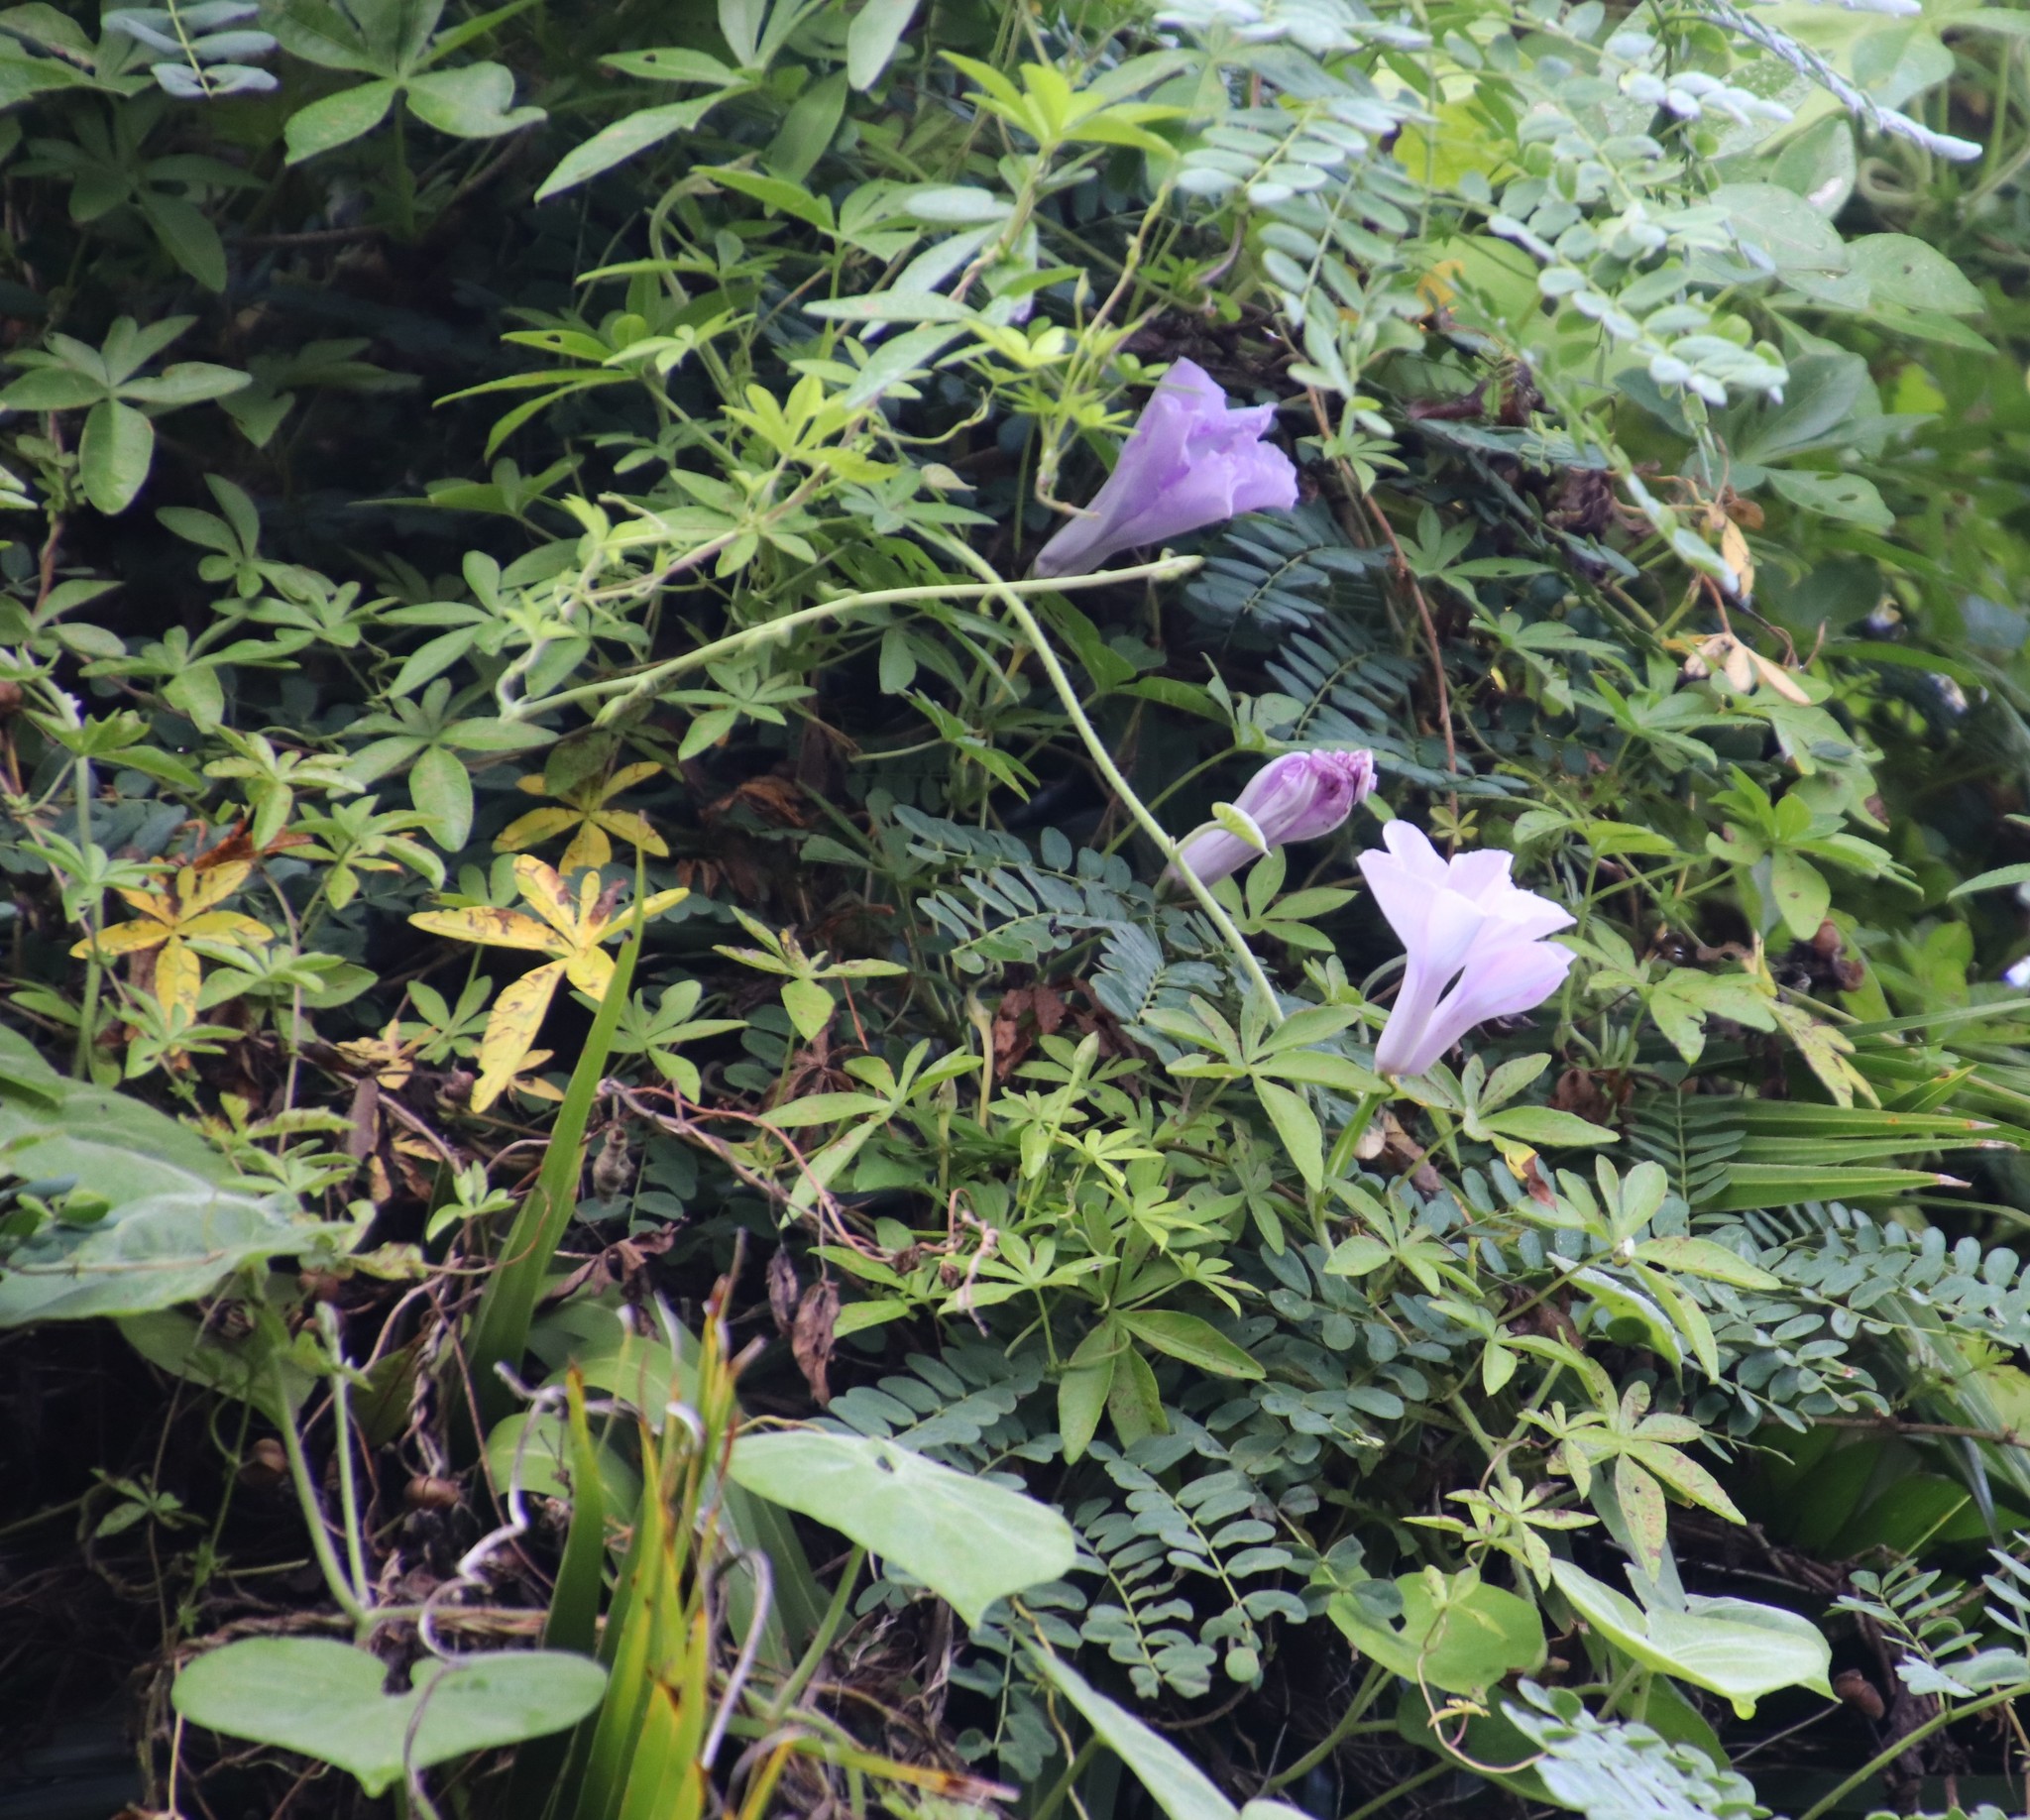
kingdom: Plantae
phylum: Tracheophyta
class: Magnoliopsida
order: Solanales
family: Convolvulaceae
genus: Ipomoea
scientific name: Ipomoea cairica
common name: Mile a minute vine
